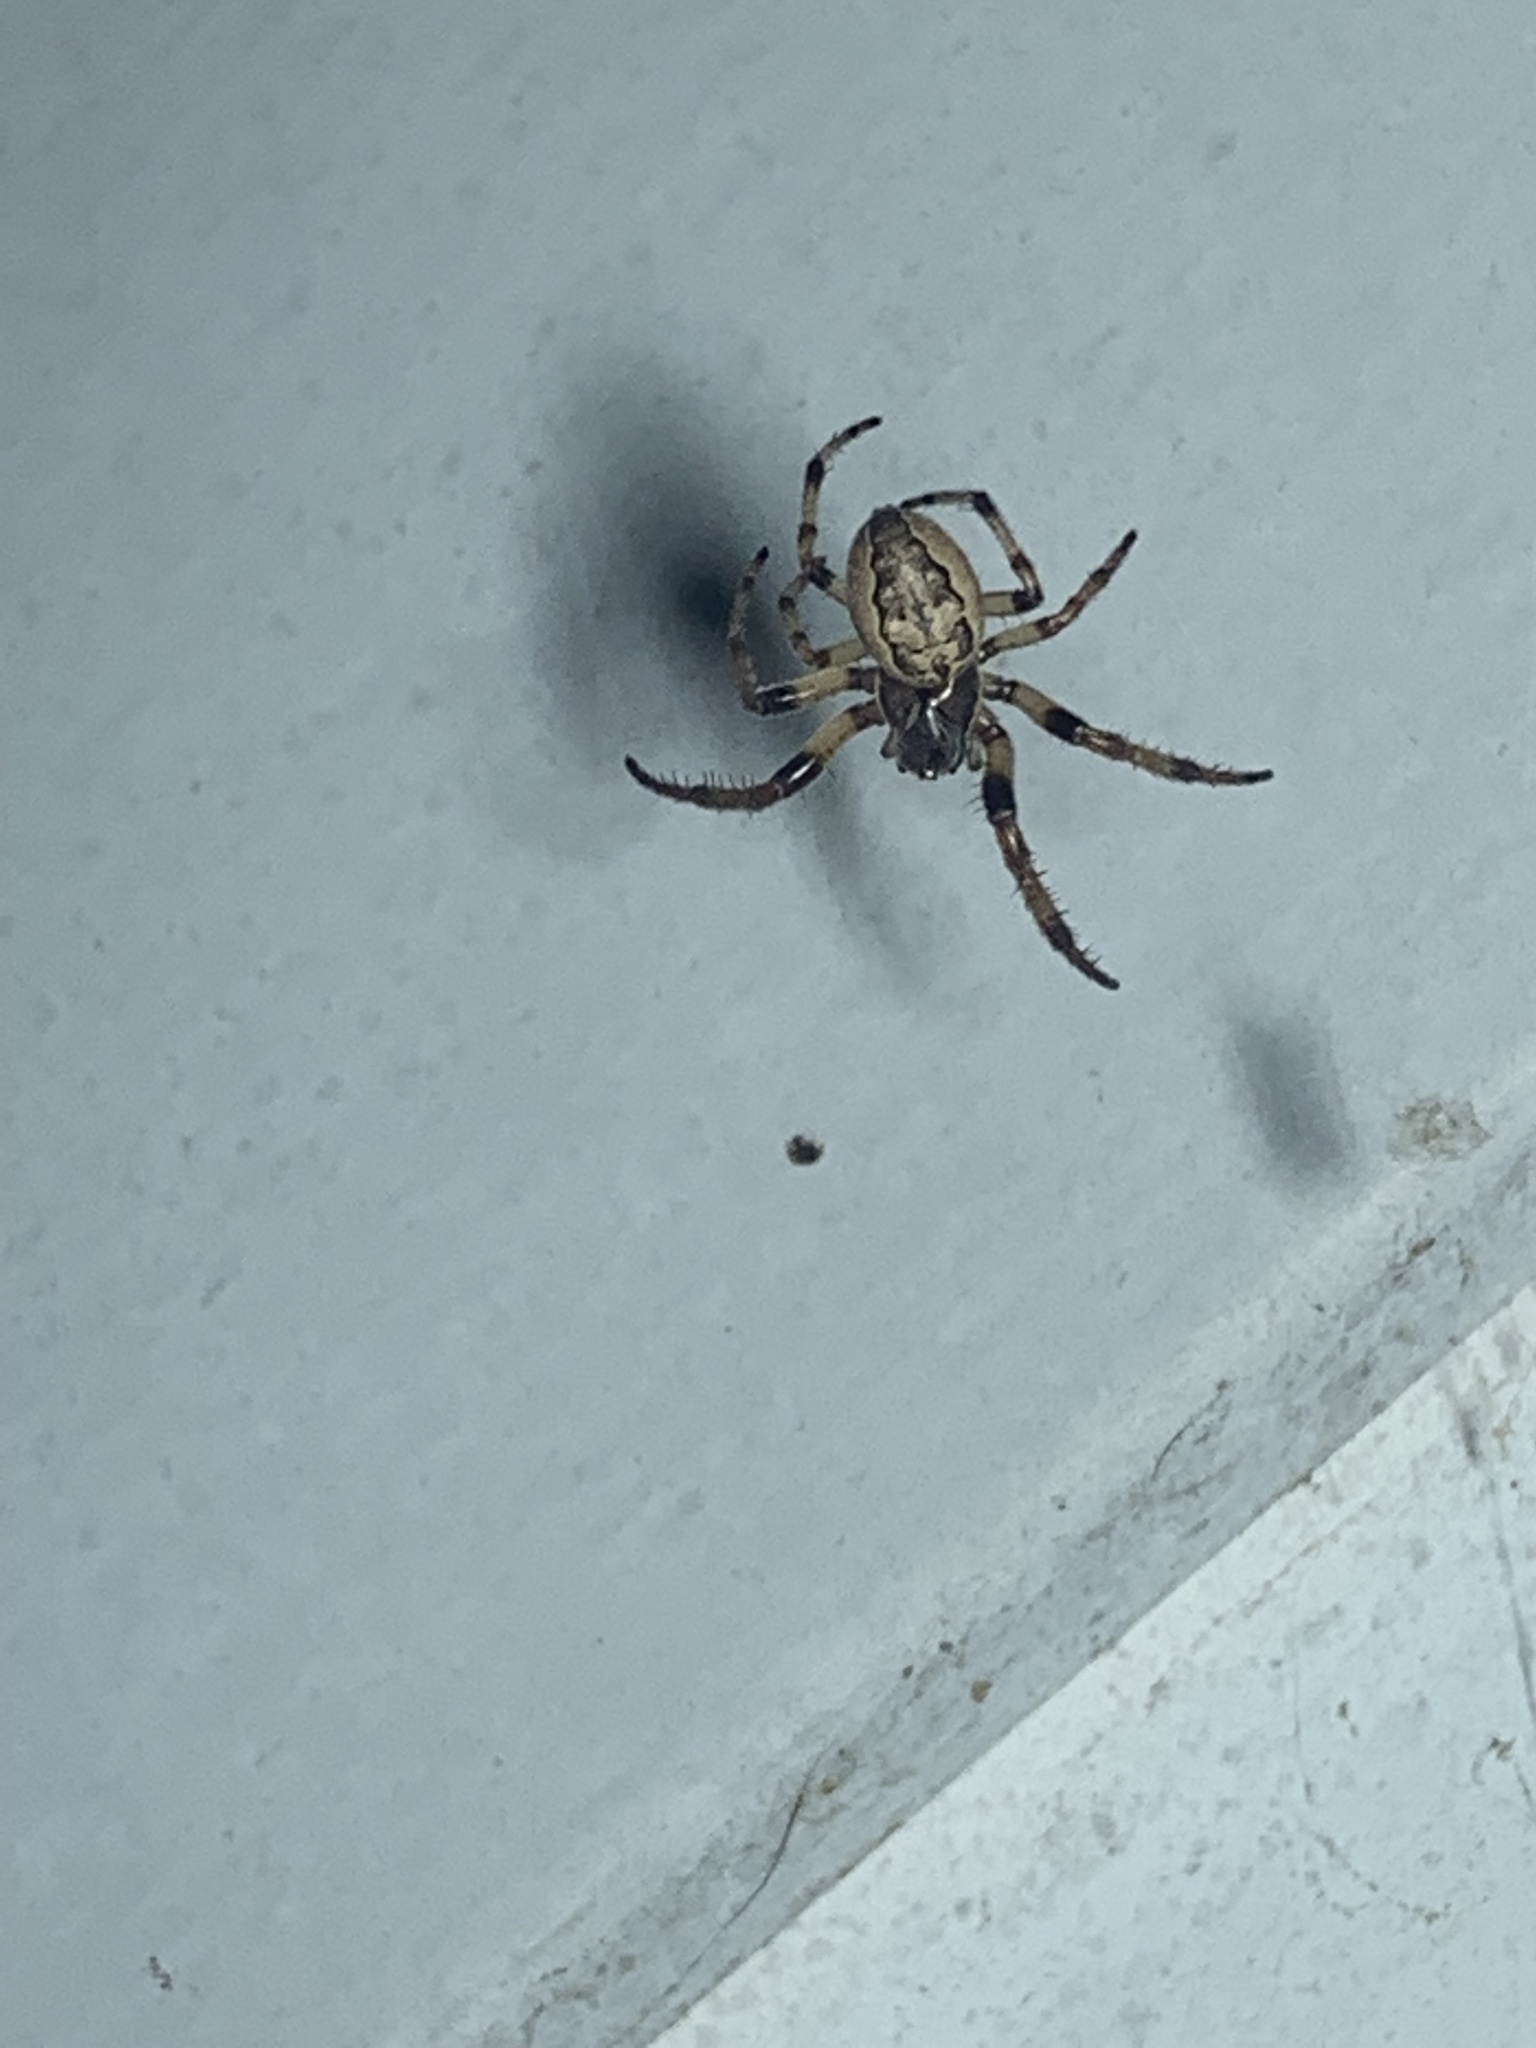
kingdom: Animalia
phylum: Arthropoda
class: Arachnida
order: Araneae
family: Araneidae
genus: Larinioides
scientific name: Larinioides cornutus
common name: Furrow orbweaver
